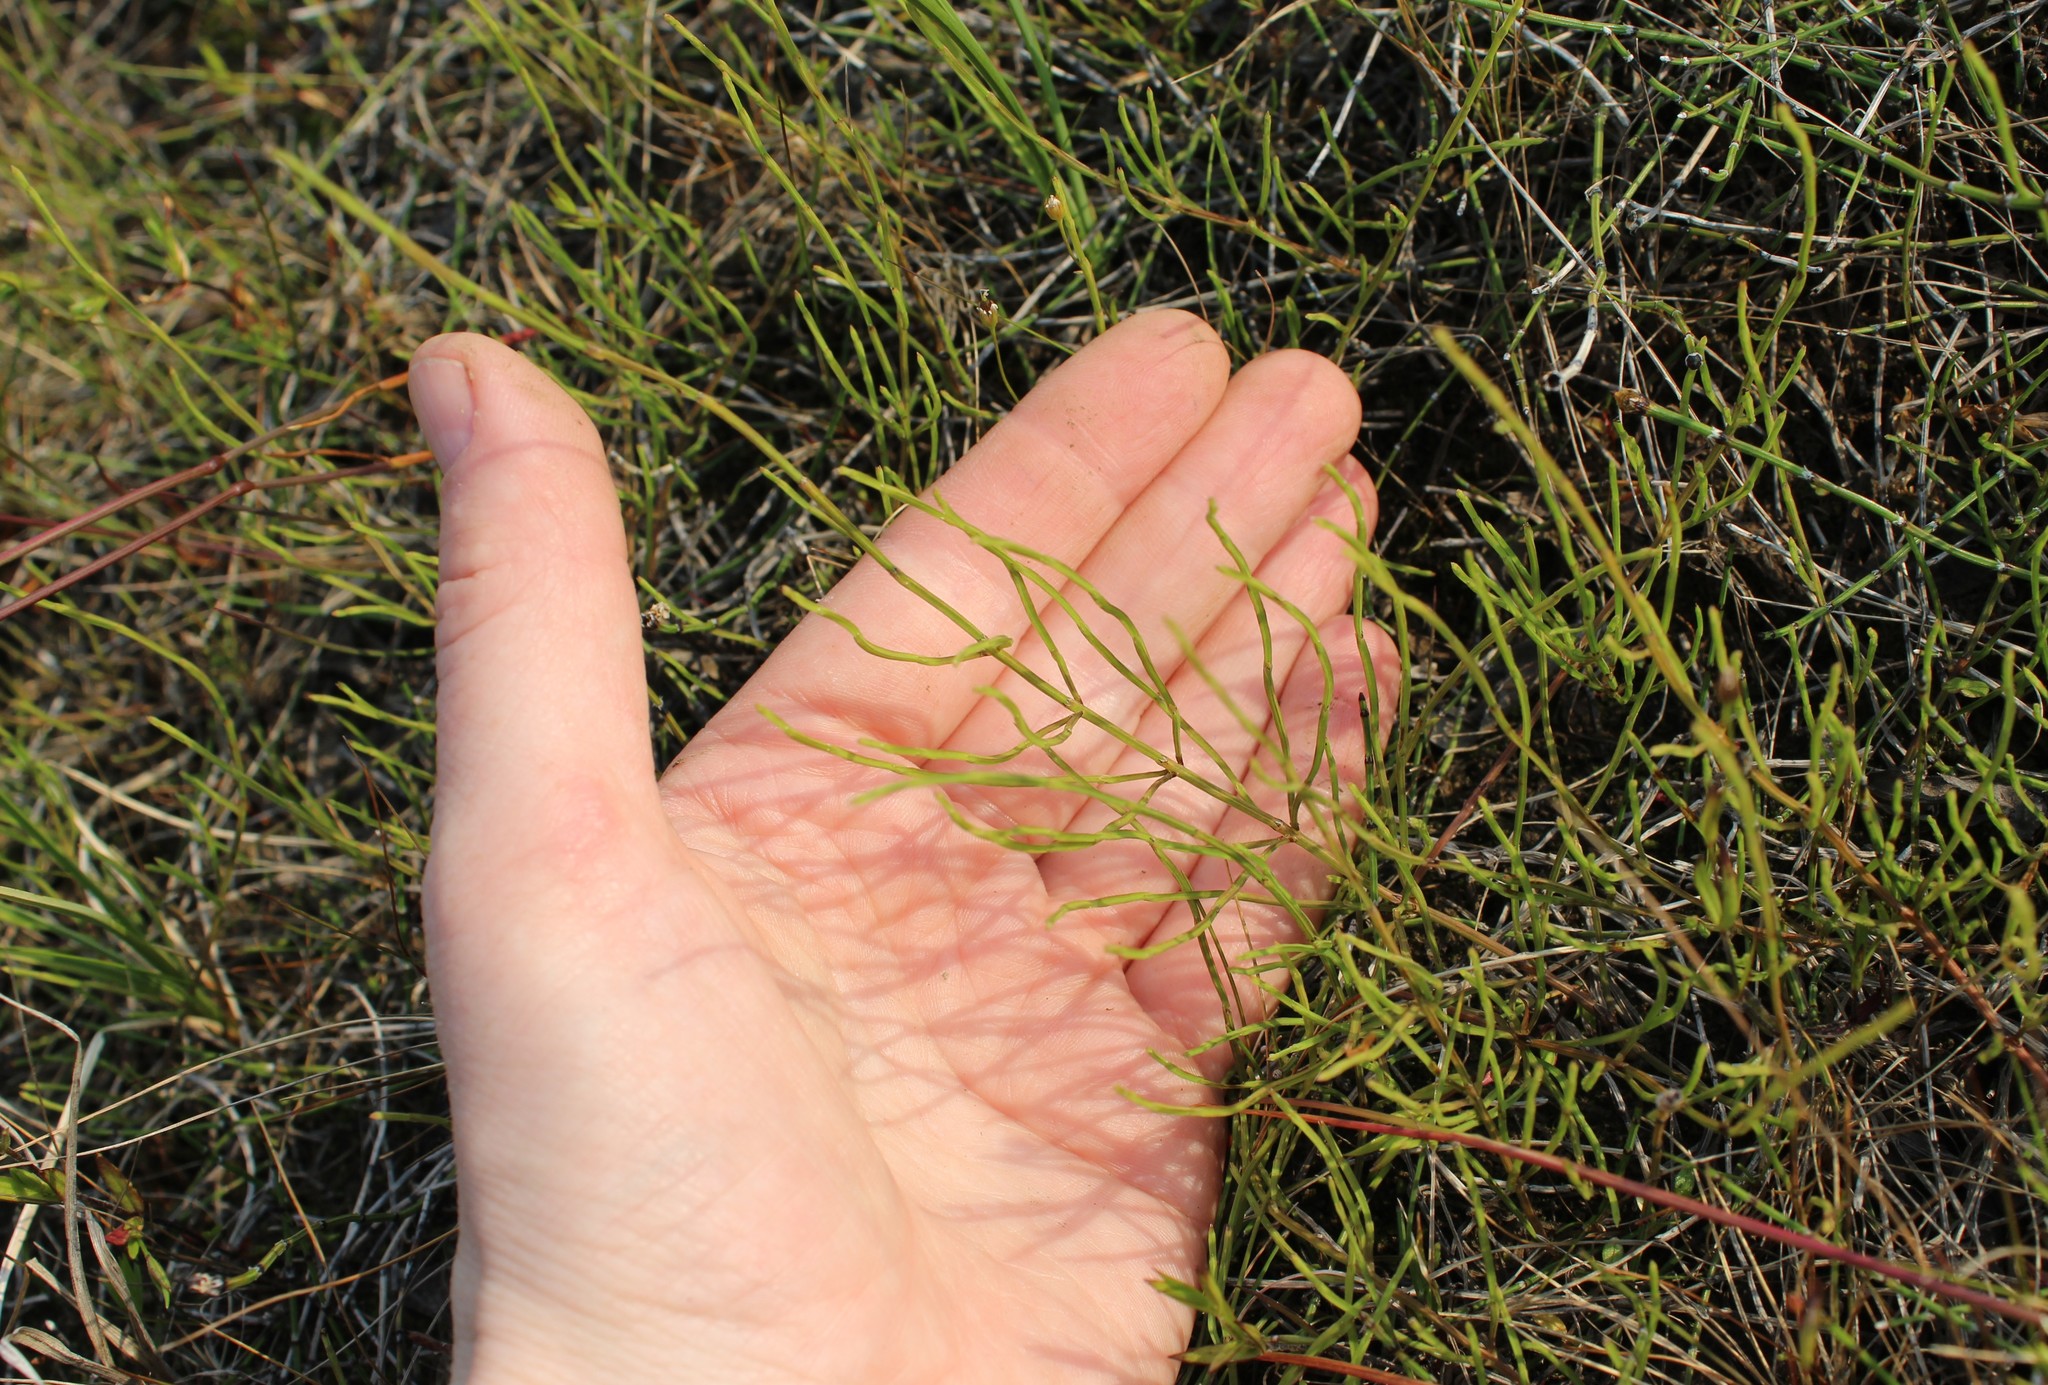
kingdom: Plantae
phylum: Tracheophyta
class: Polypodiopsida
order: Equisetales
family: Equisetaceae
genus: Equisetum
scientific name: Equisetum arvense
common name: Field horsetail
